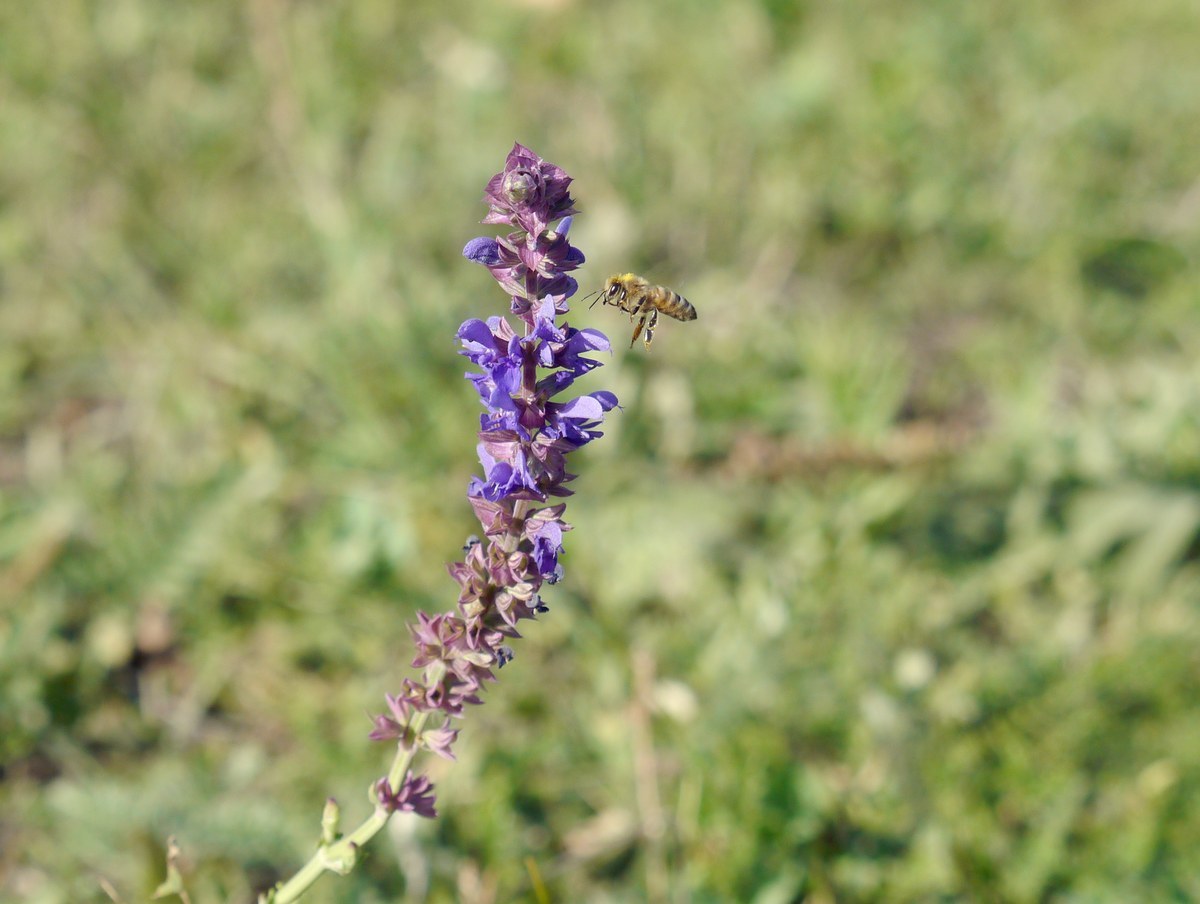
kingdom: Plantae
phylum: Tracheophyta
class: Magnoliopsida
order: Lamiales
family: Lamiaceae
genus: Salvia
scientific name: Salvia nemorosa
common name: Balkan clary
